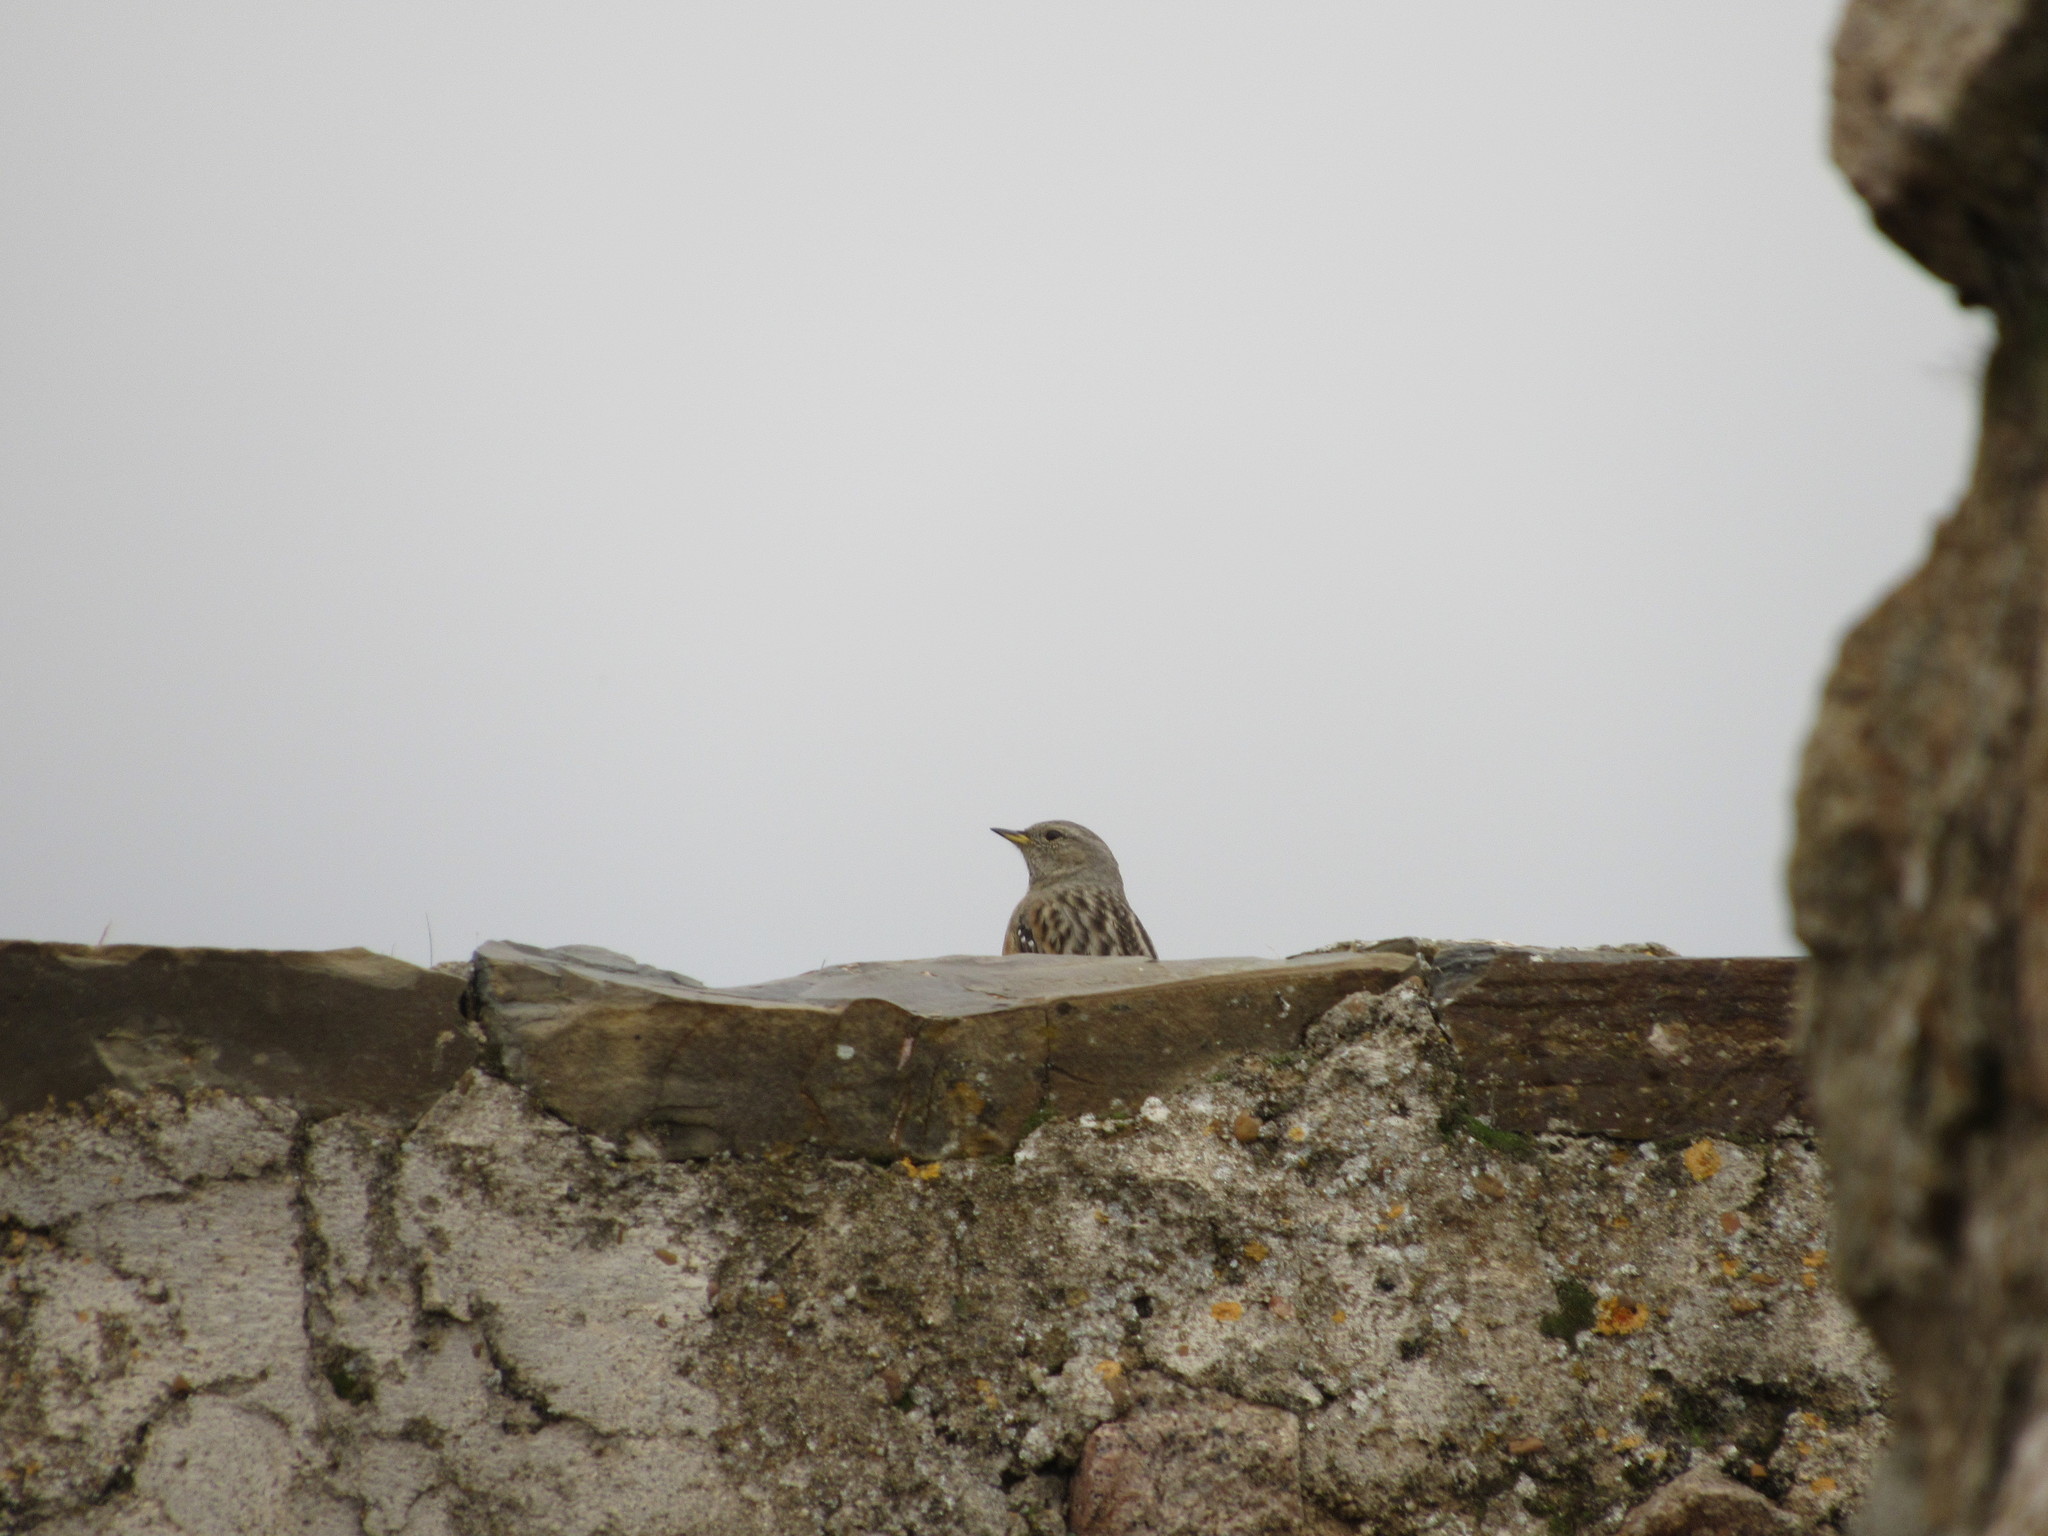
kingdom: Animalia
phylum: Chordata
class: Aves
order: Passeriformes
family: Prunellidae
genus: Prunella
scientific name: Prunella collaris
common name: Alpine accentor
